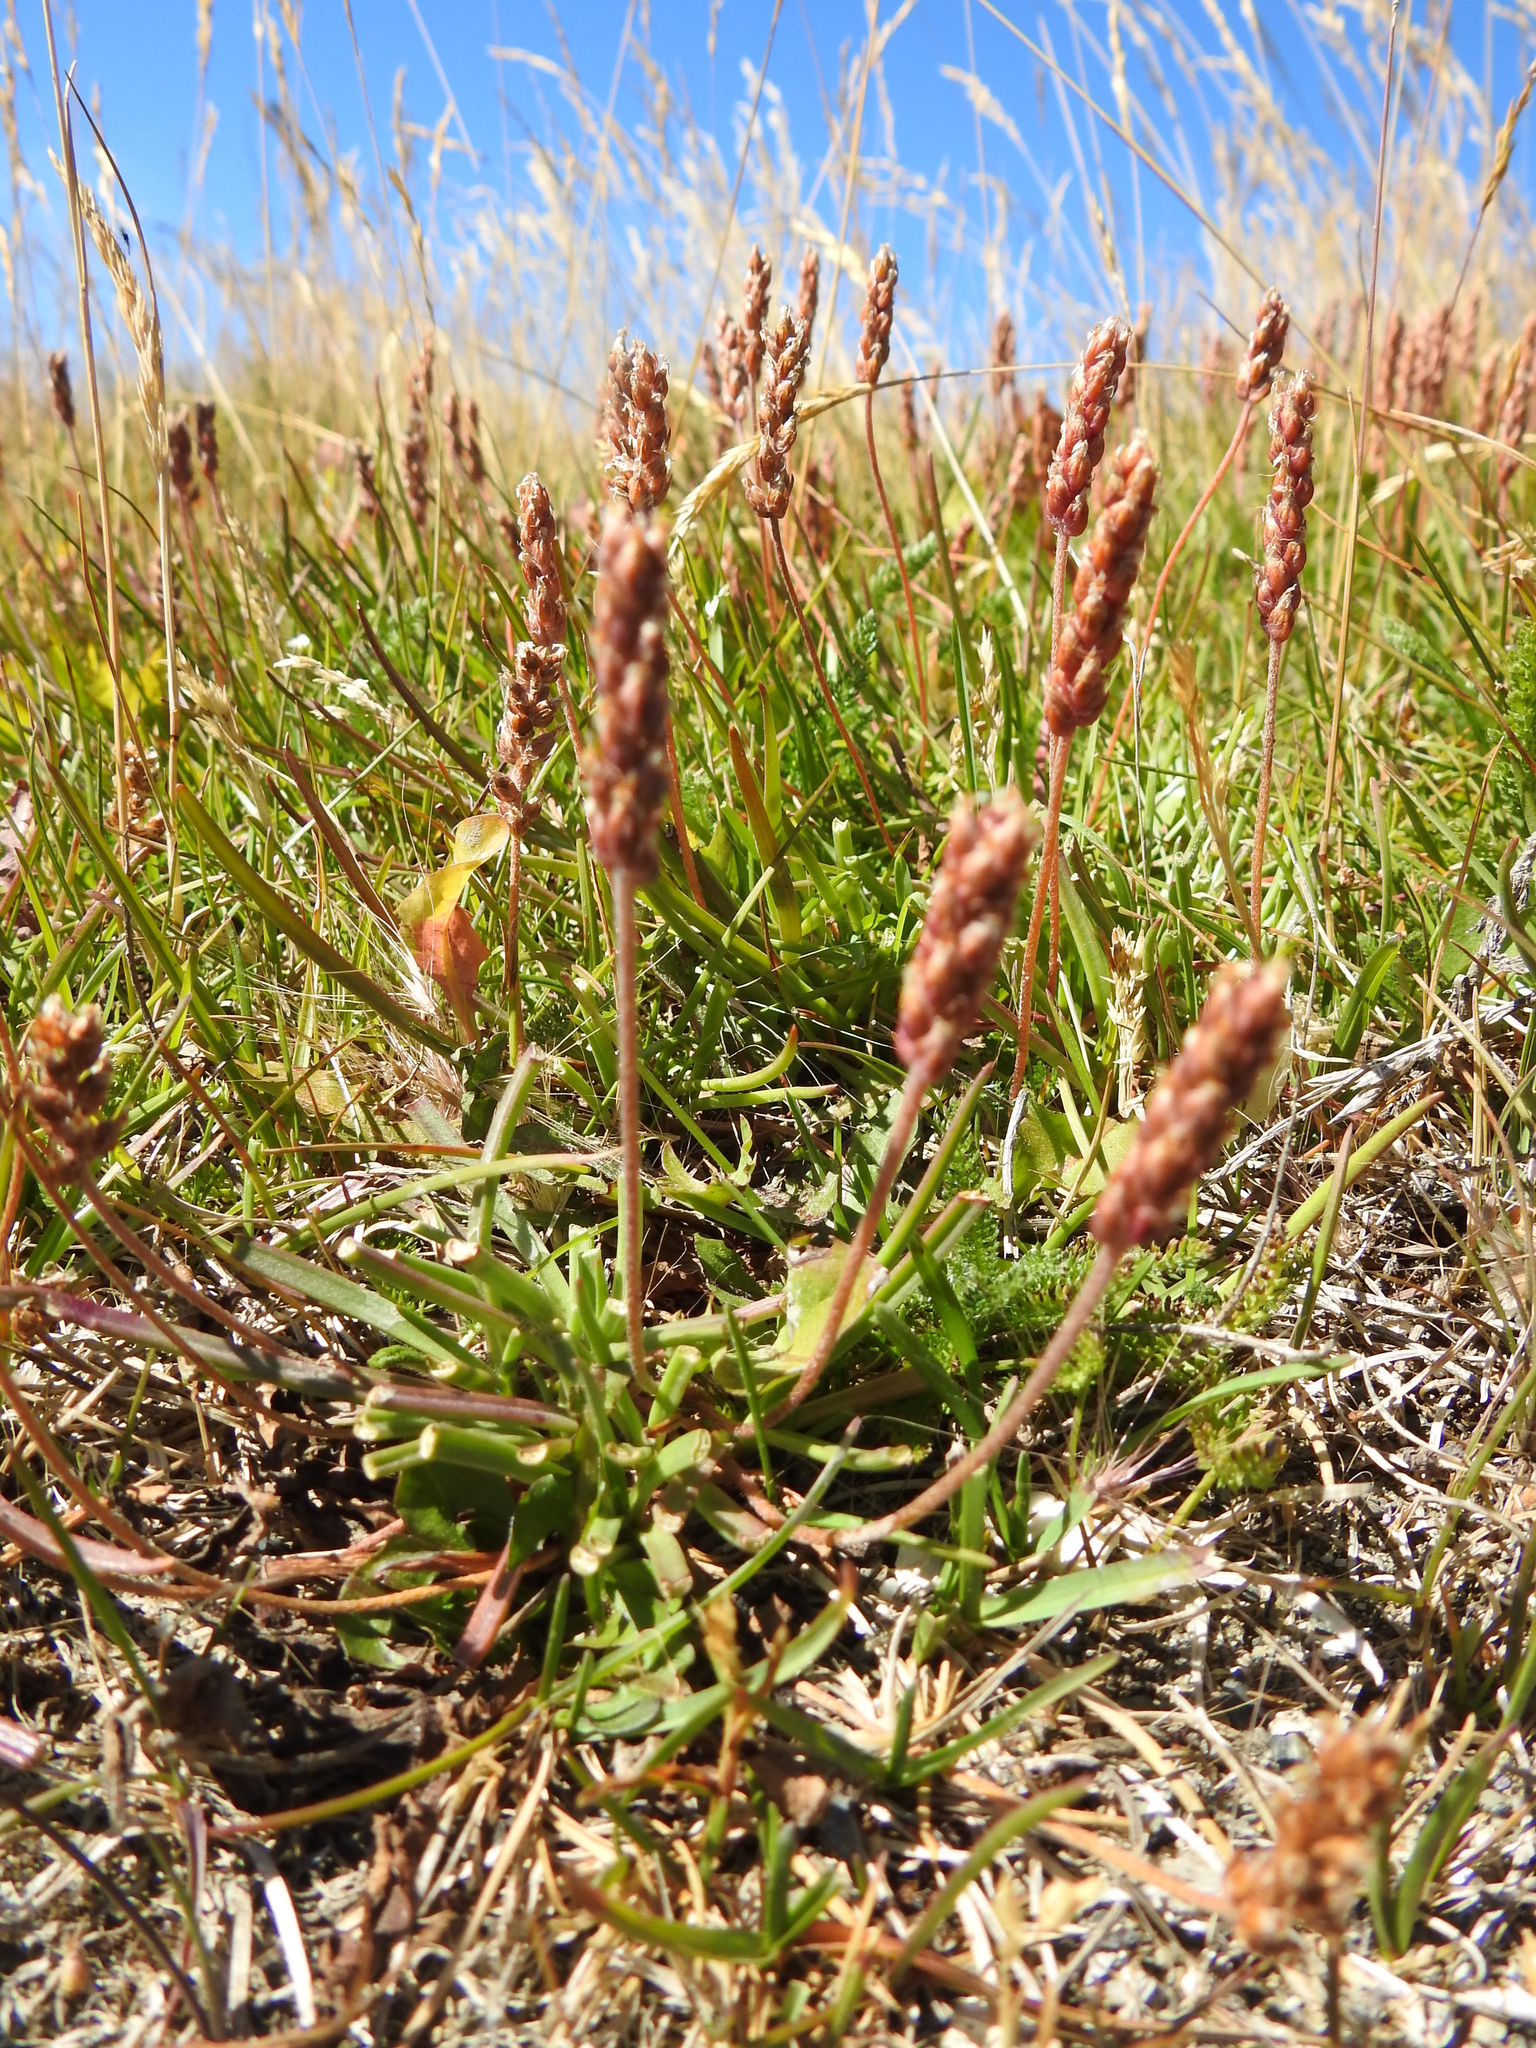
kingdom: Plantae
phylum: Tracheophyta
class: Magnoliopsida
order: Lamiales
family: Plantaginaceae
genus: Plantago
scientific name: Plantago maritima
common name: Sea plantain
